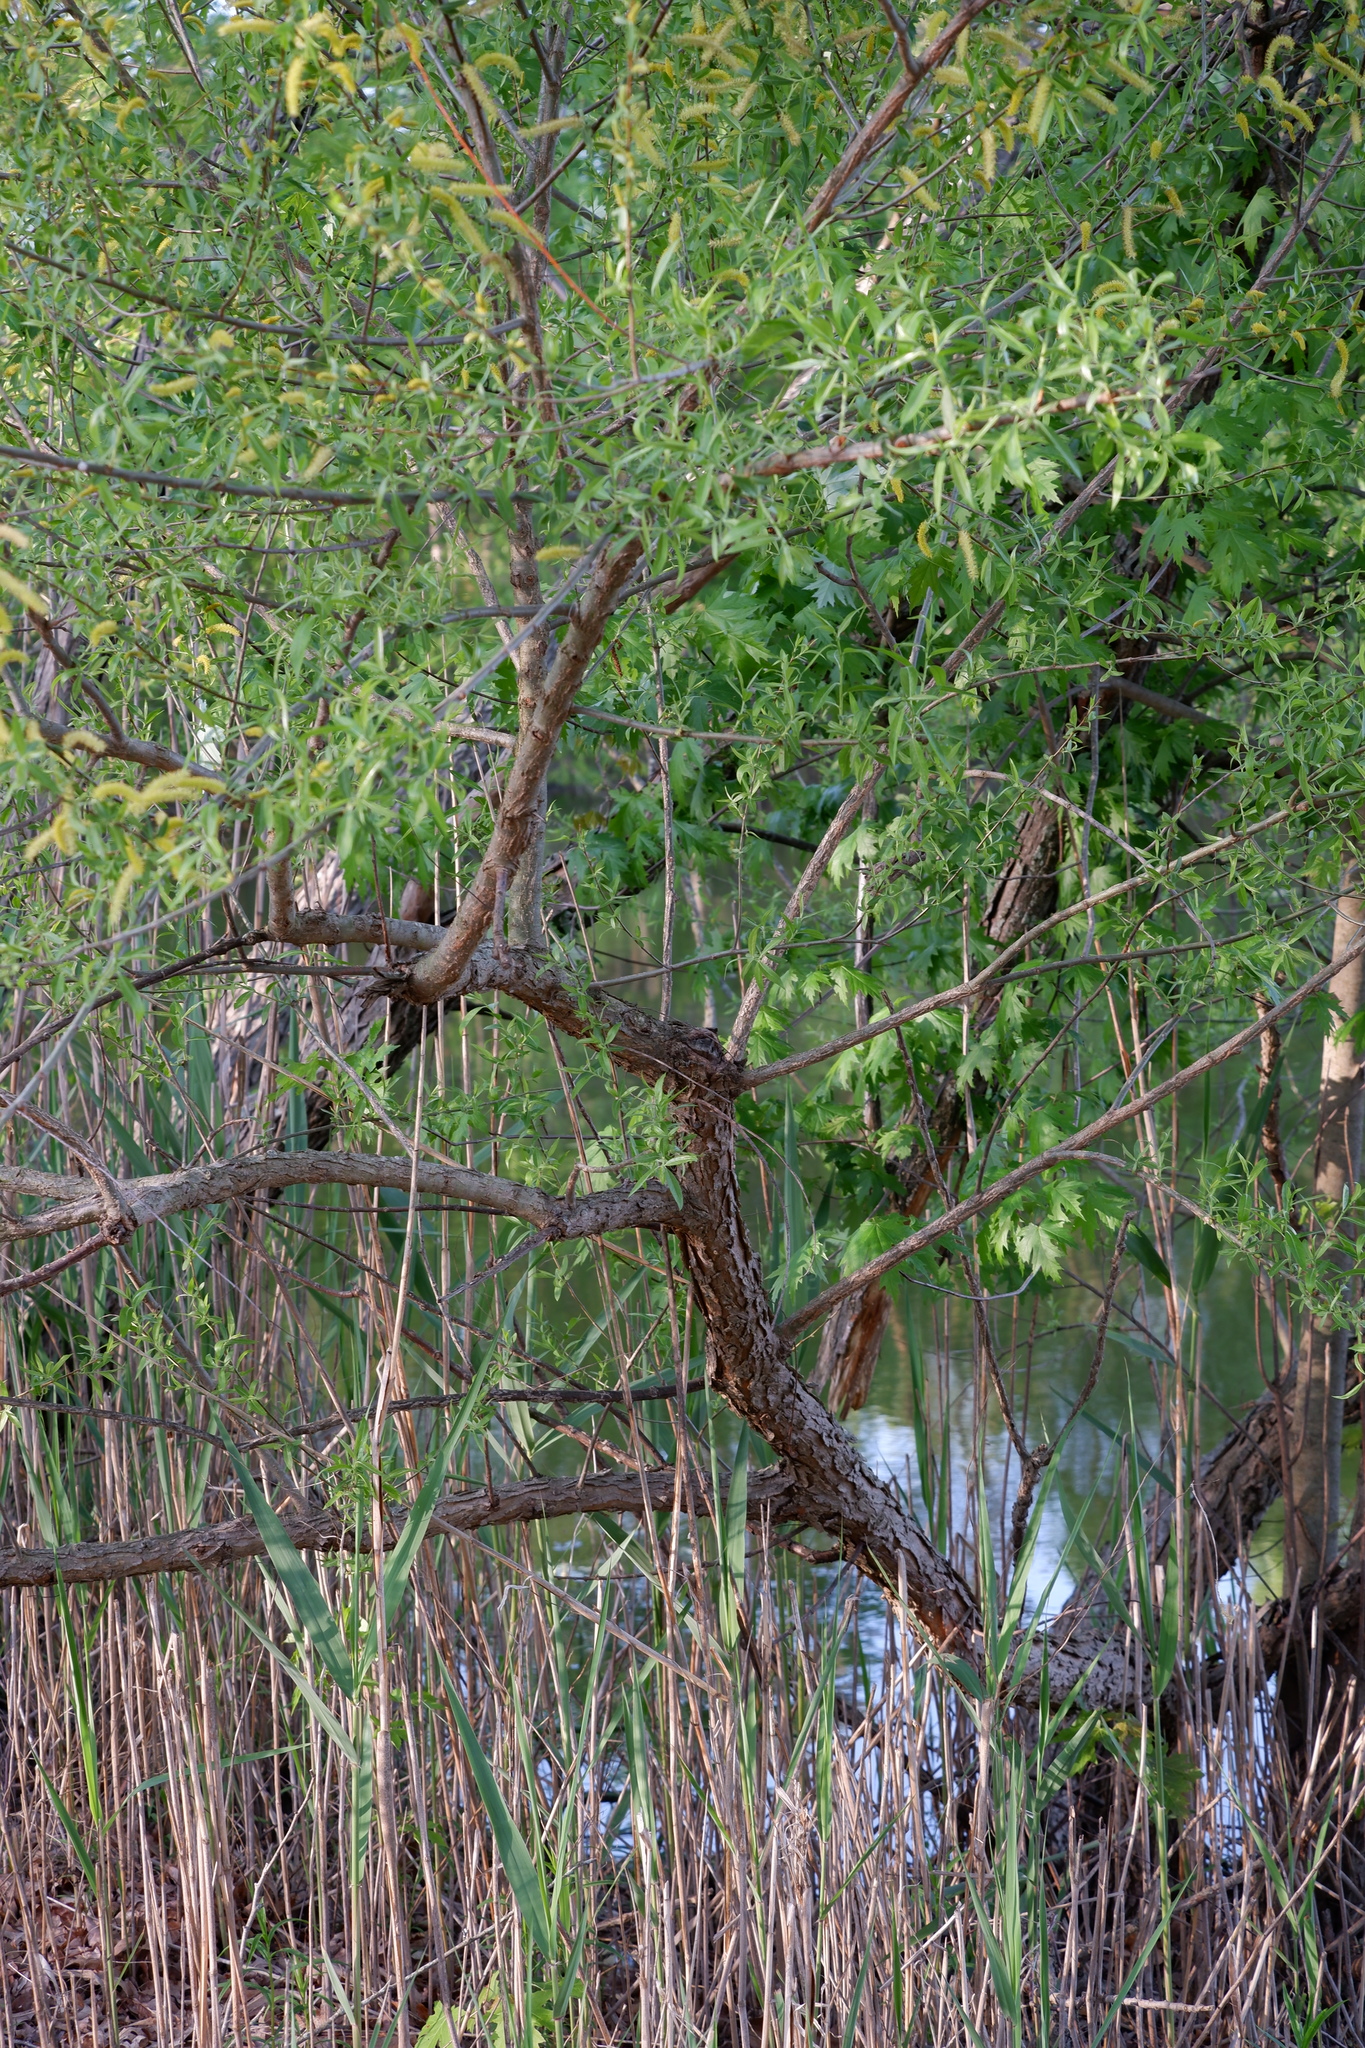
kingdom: Plantae
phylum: Tracheophyta
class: Magnoliopsida
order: Malpighiales
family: Salicaceae
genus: Salix
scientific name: Salix nigra
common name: Black willow
